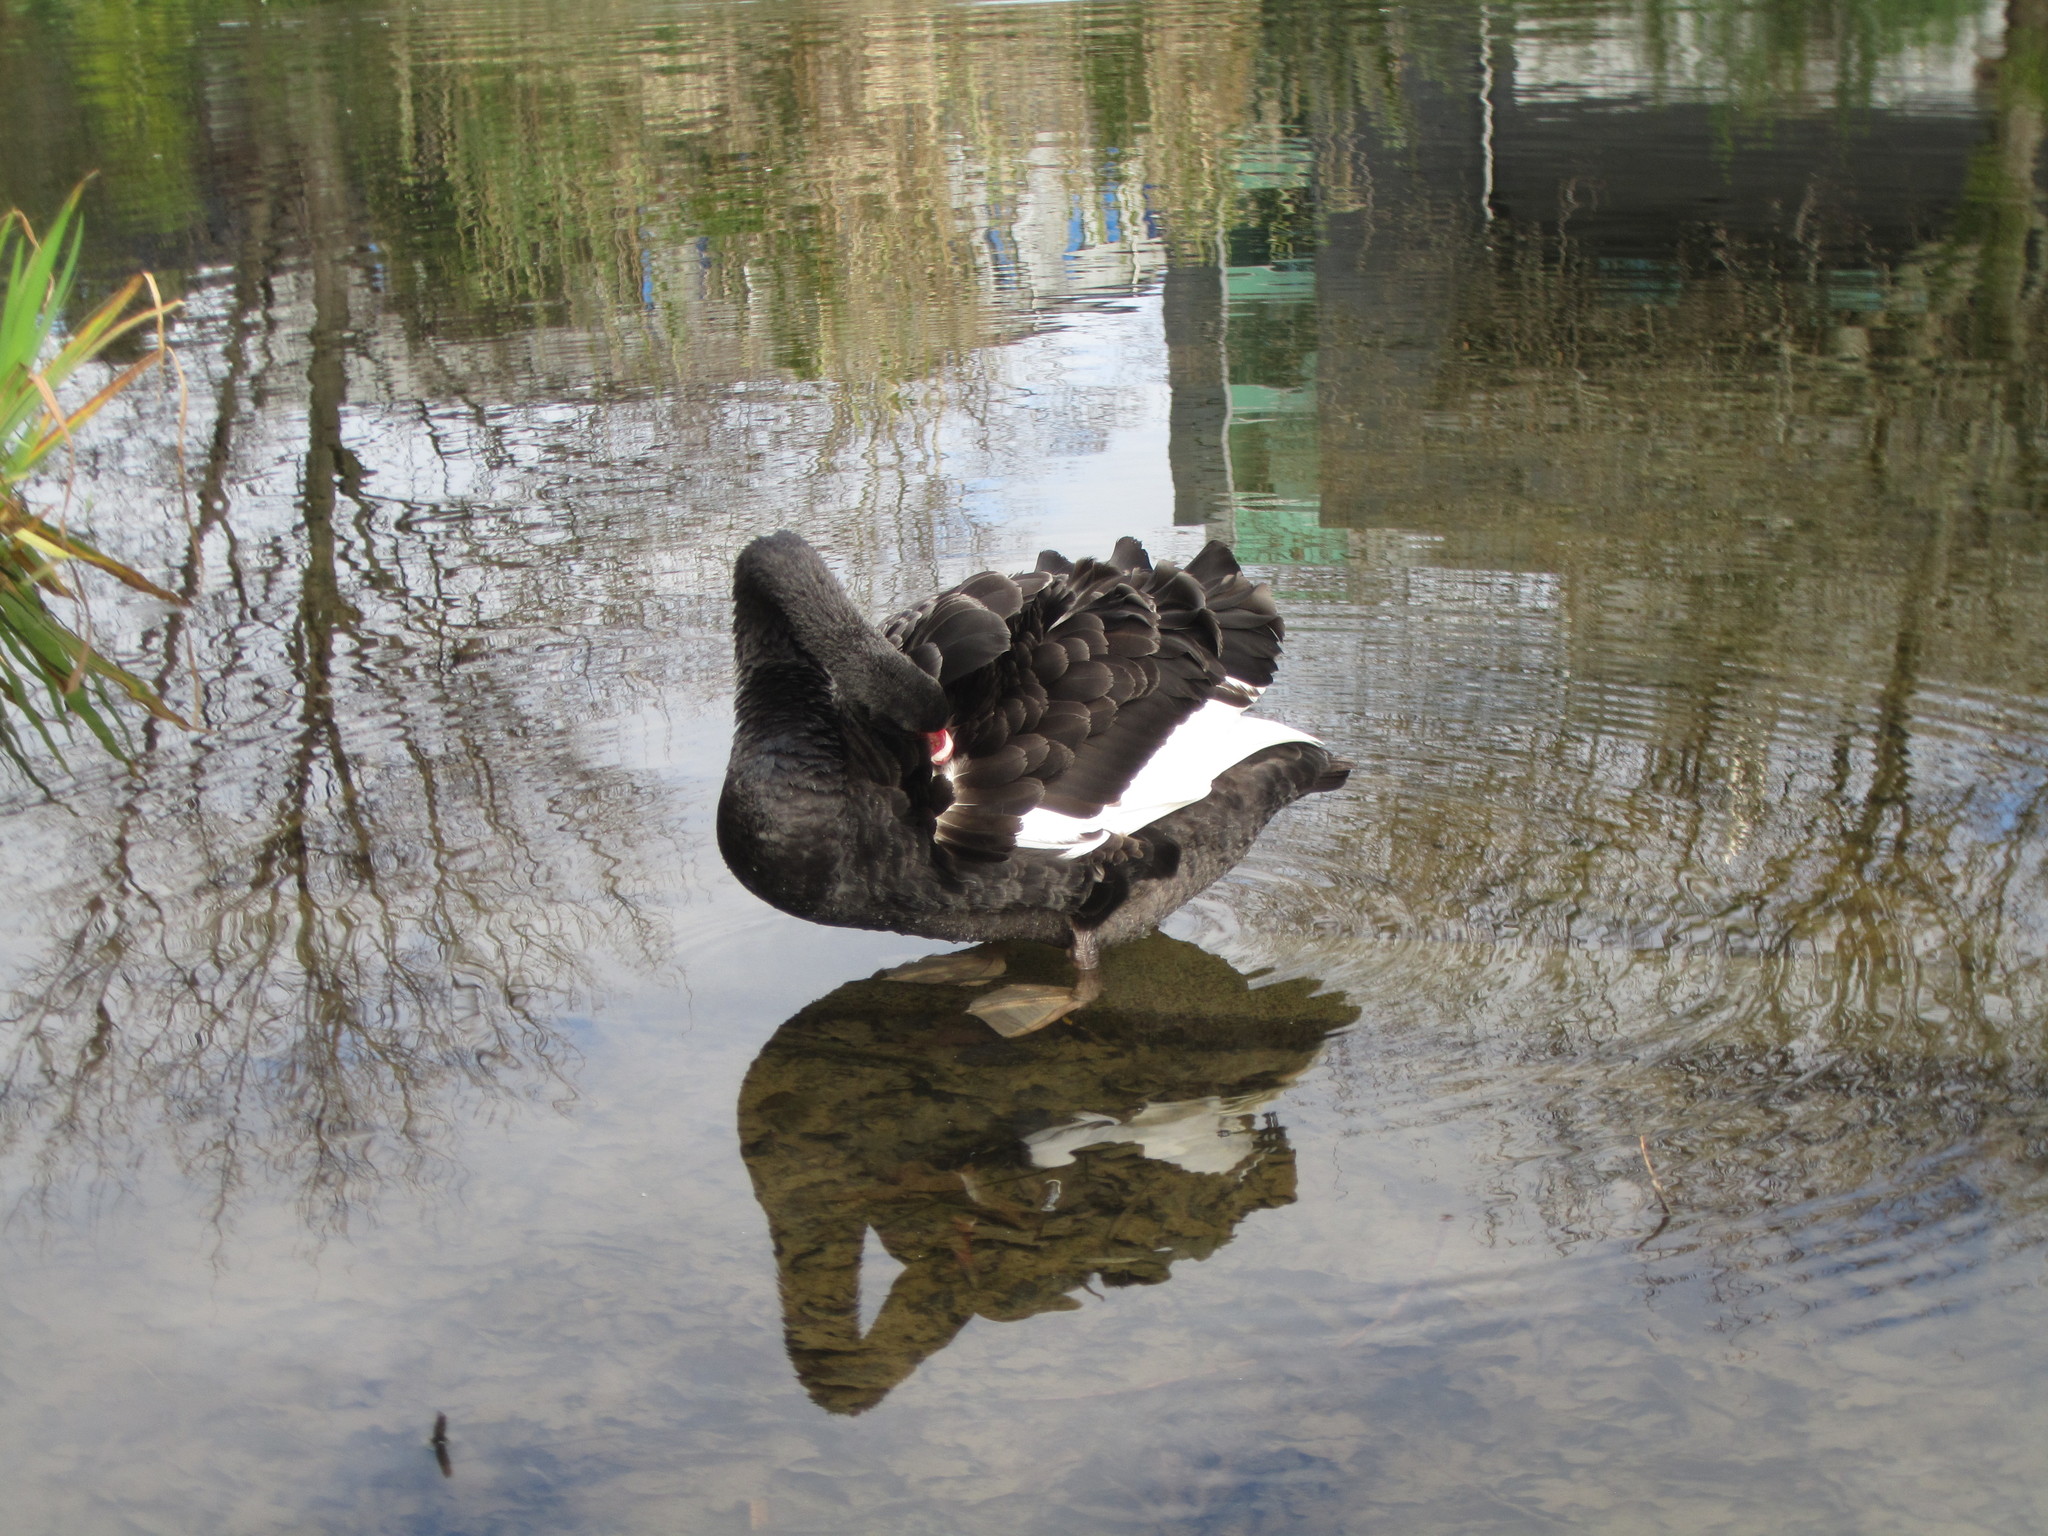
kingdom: Animalia
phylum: Chordata
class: Aves
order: Anseriformes
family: Anatidae
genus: Cygnus
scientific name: Cygnus atratus
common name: Black swan
